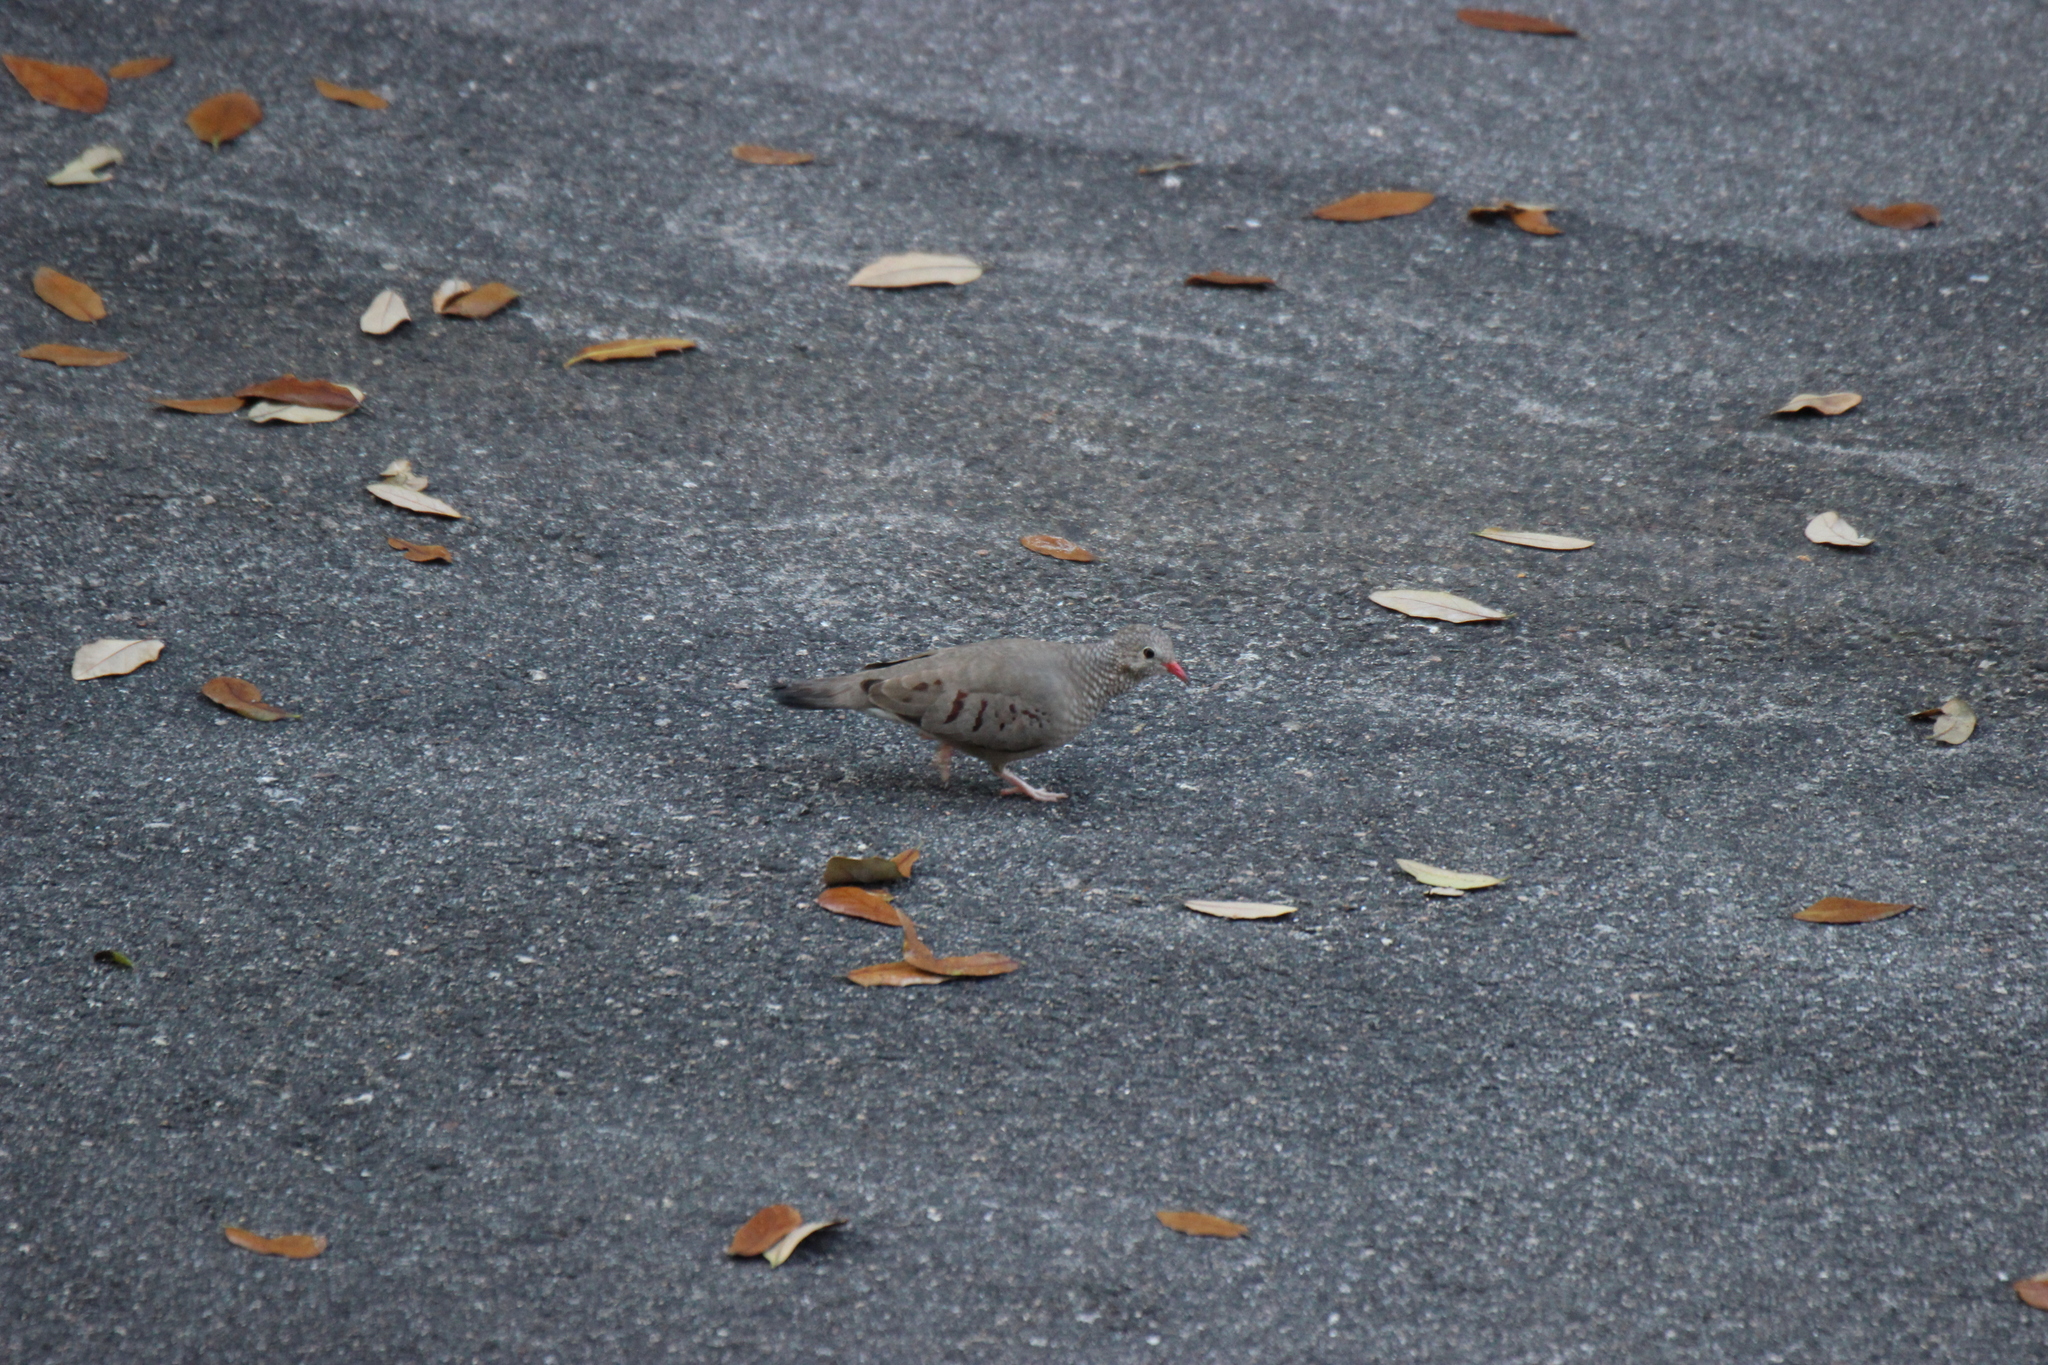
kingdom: Animalia
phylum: Chordata
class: Aves
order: Columbiformes
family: Columbidae
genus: Columbina
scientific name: Columbina passerina
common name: Common ground-dove
